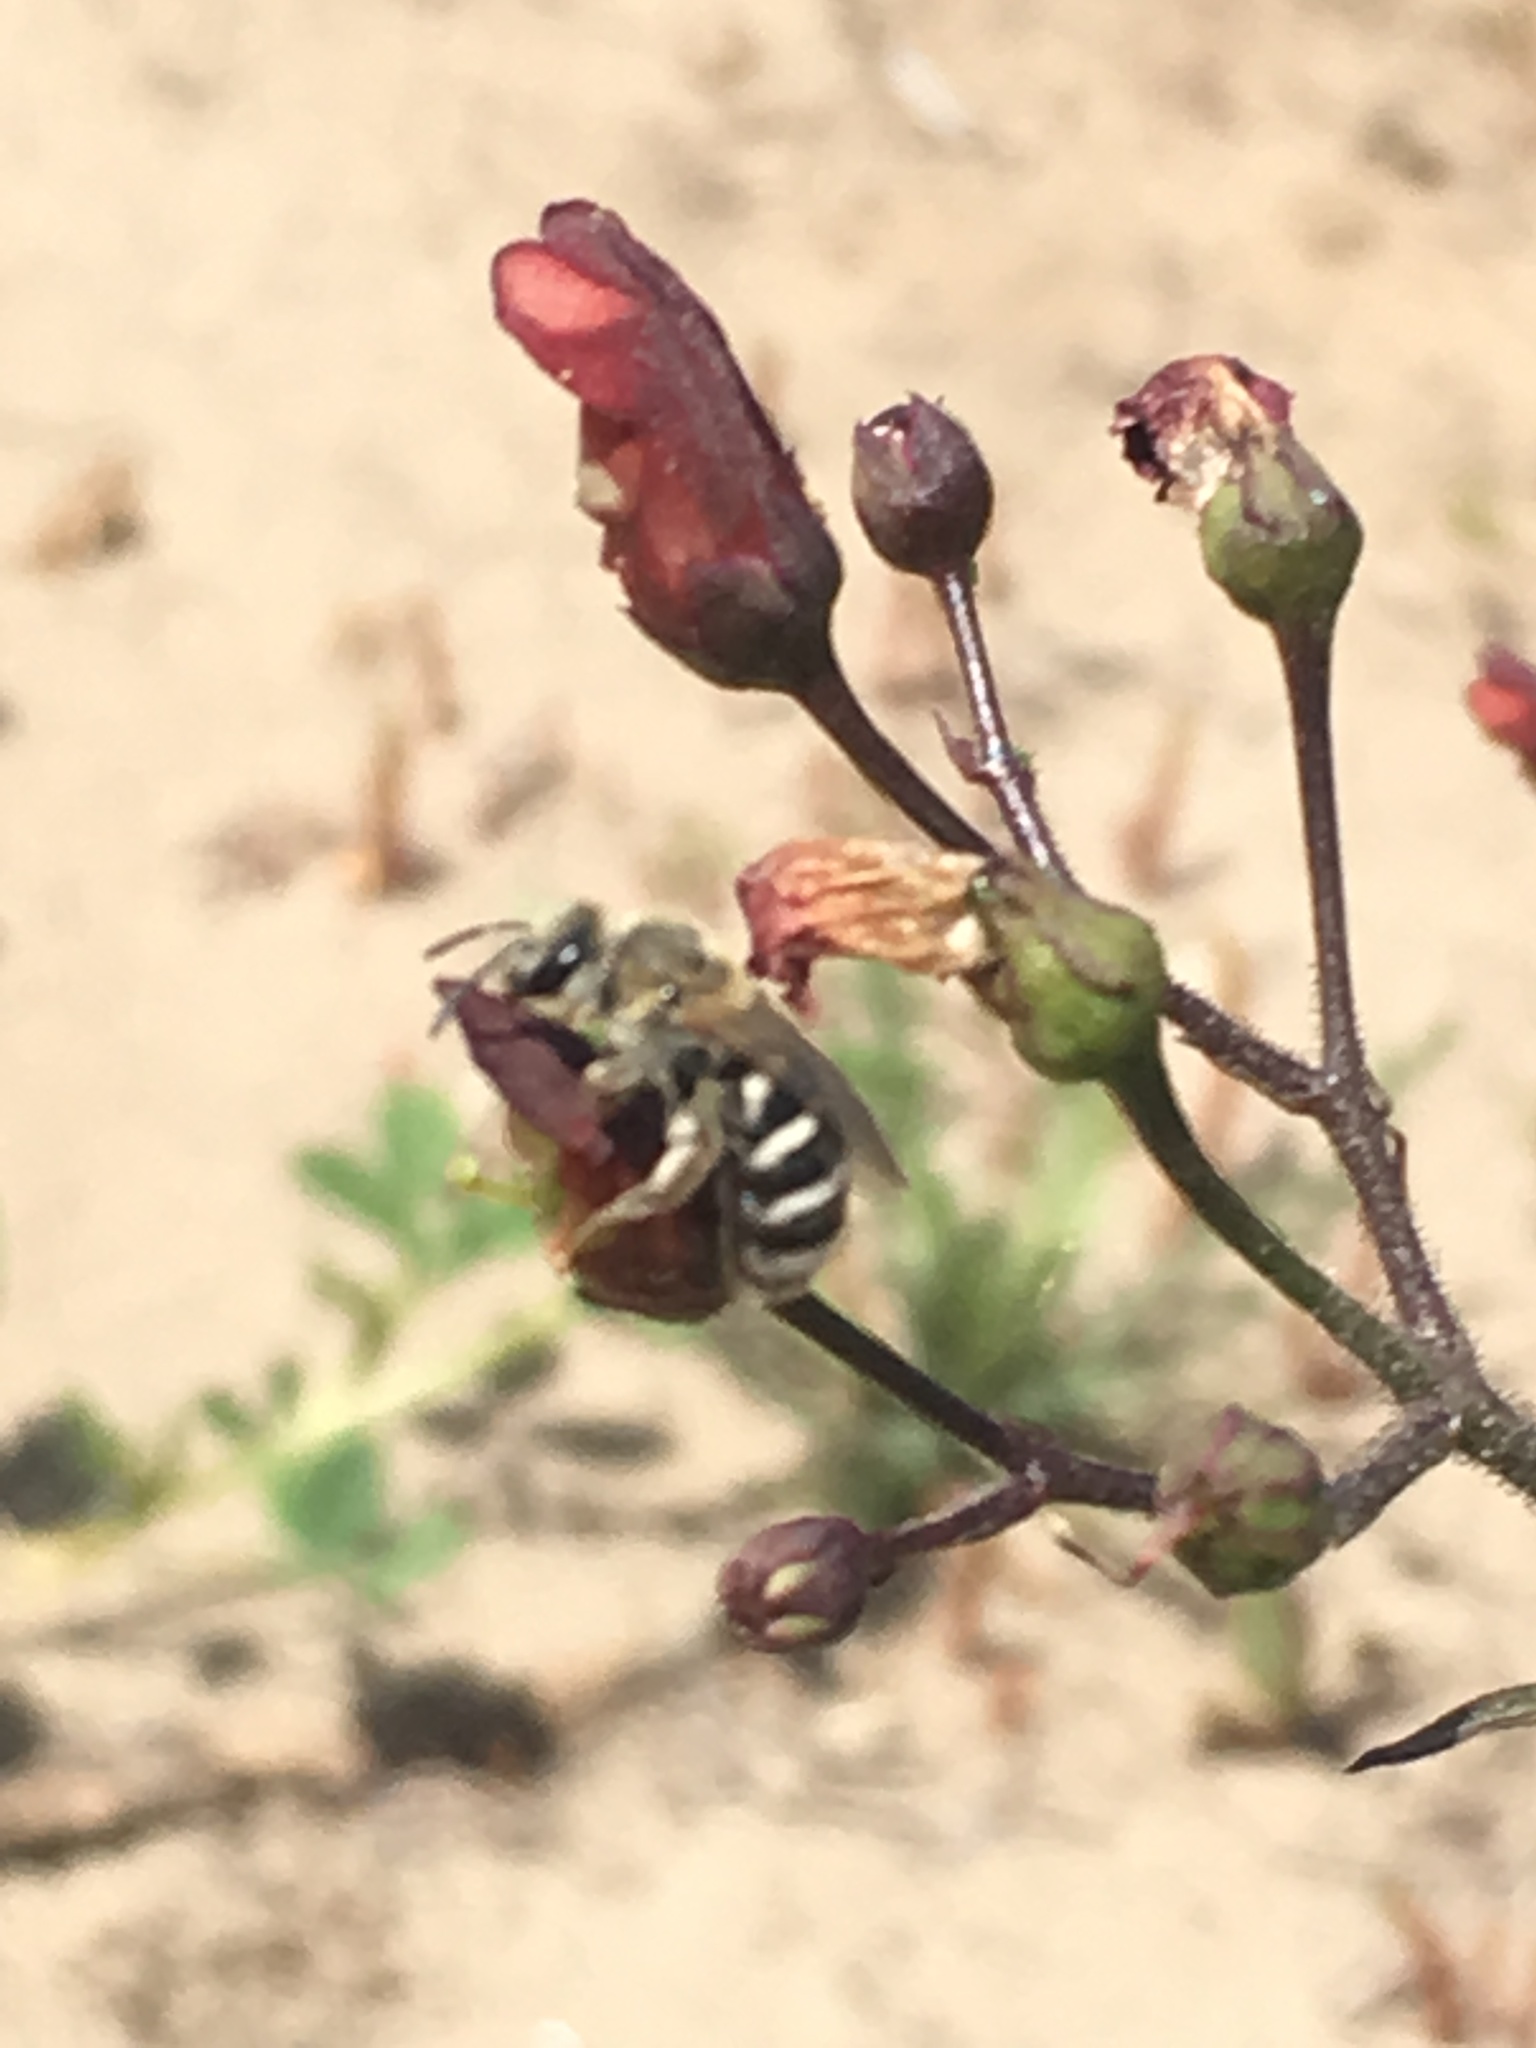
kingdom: Animalia
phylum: Arthropoda
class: Insecta
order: Hymenoptera
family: Halictidae
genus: Lasioglossum
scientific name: Lasioglossum sisymbrii
